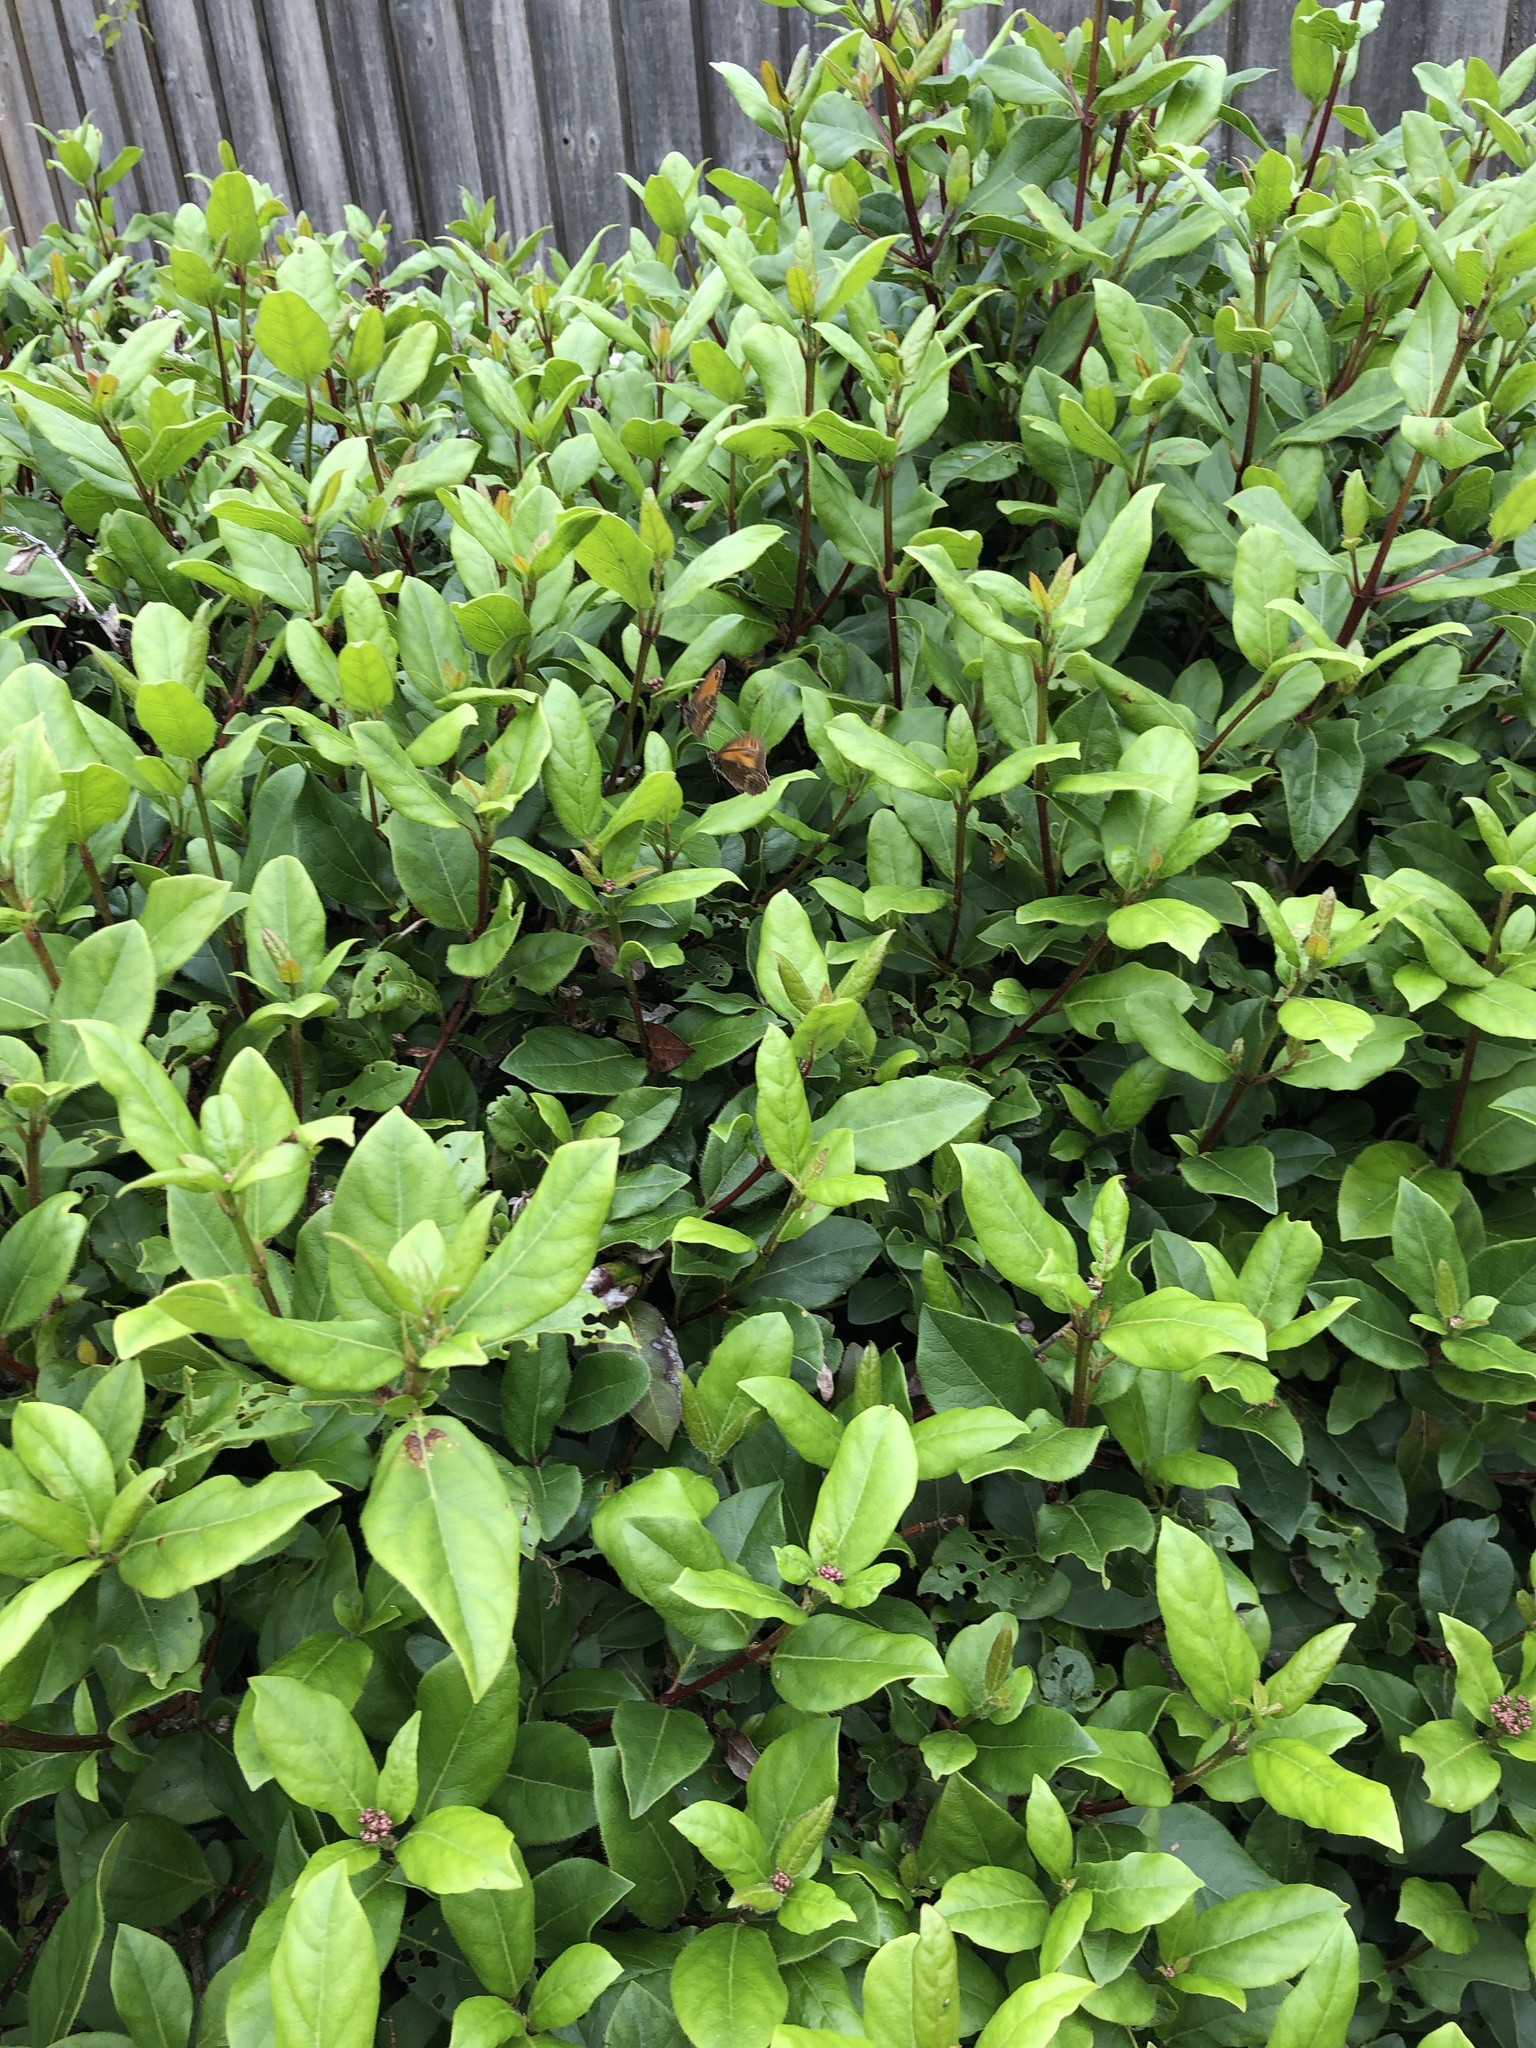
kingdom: Animalia
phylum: Arthropoda
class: Insecta
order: Lepidoptera
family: Nymphalidae
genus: Pyronia
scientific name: Pyronia tithonus
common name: Gatekeeper
